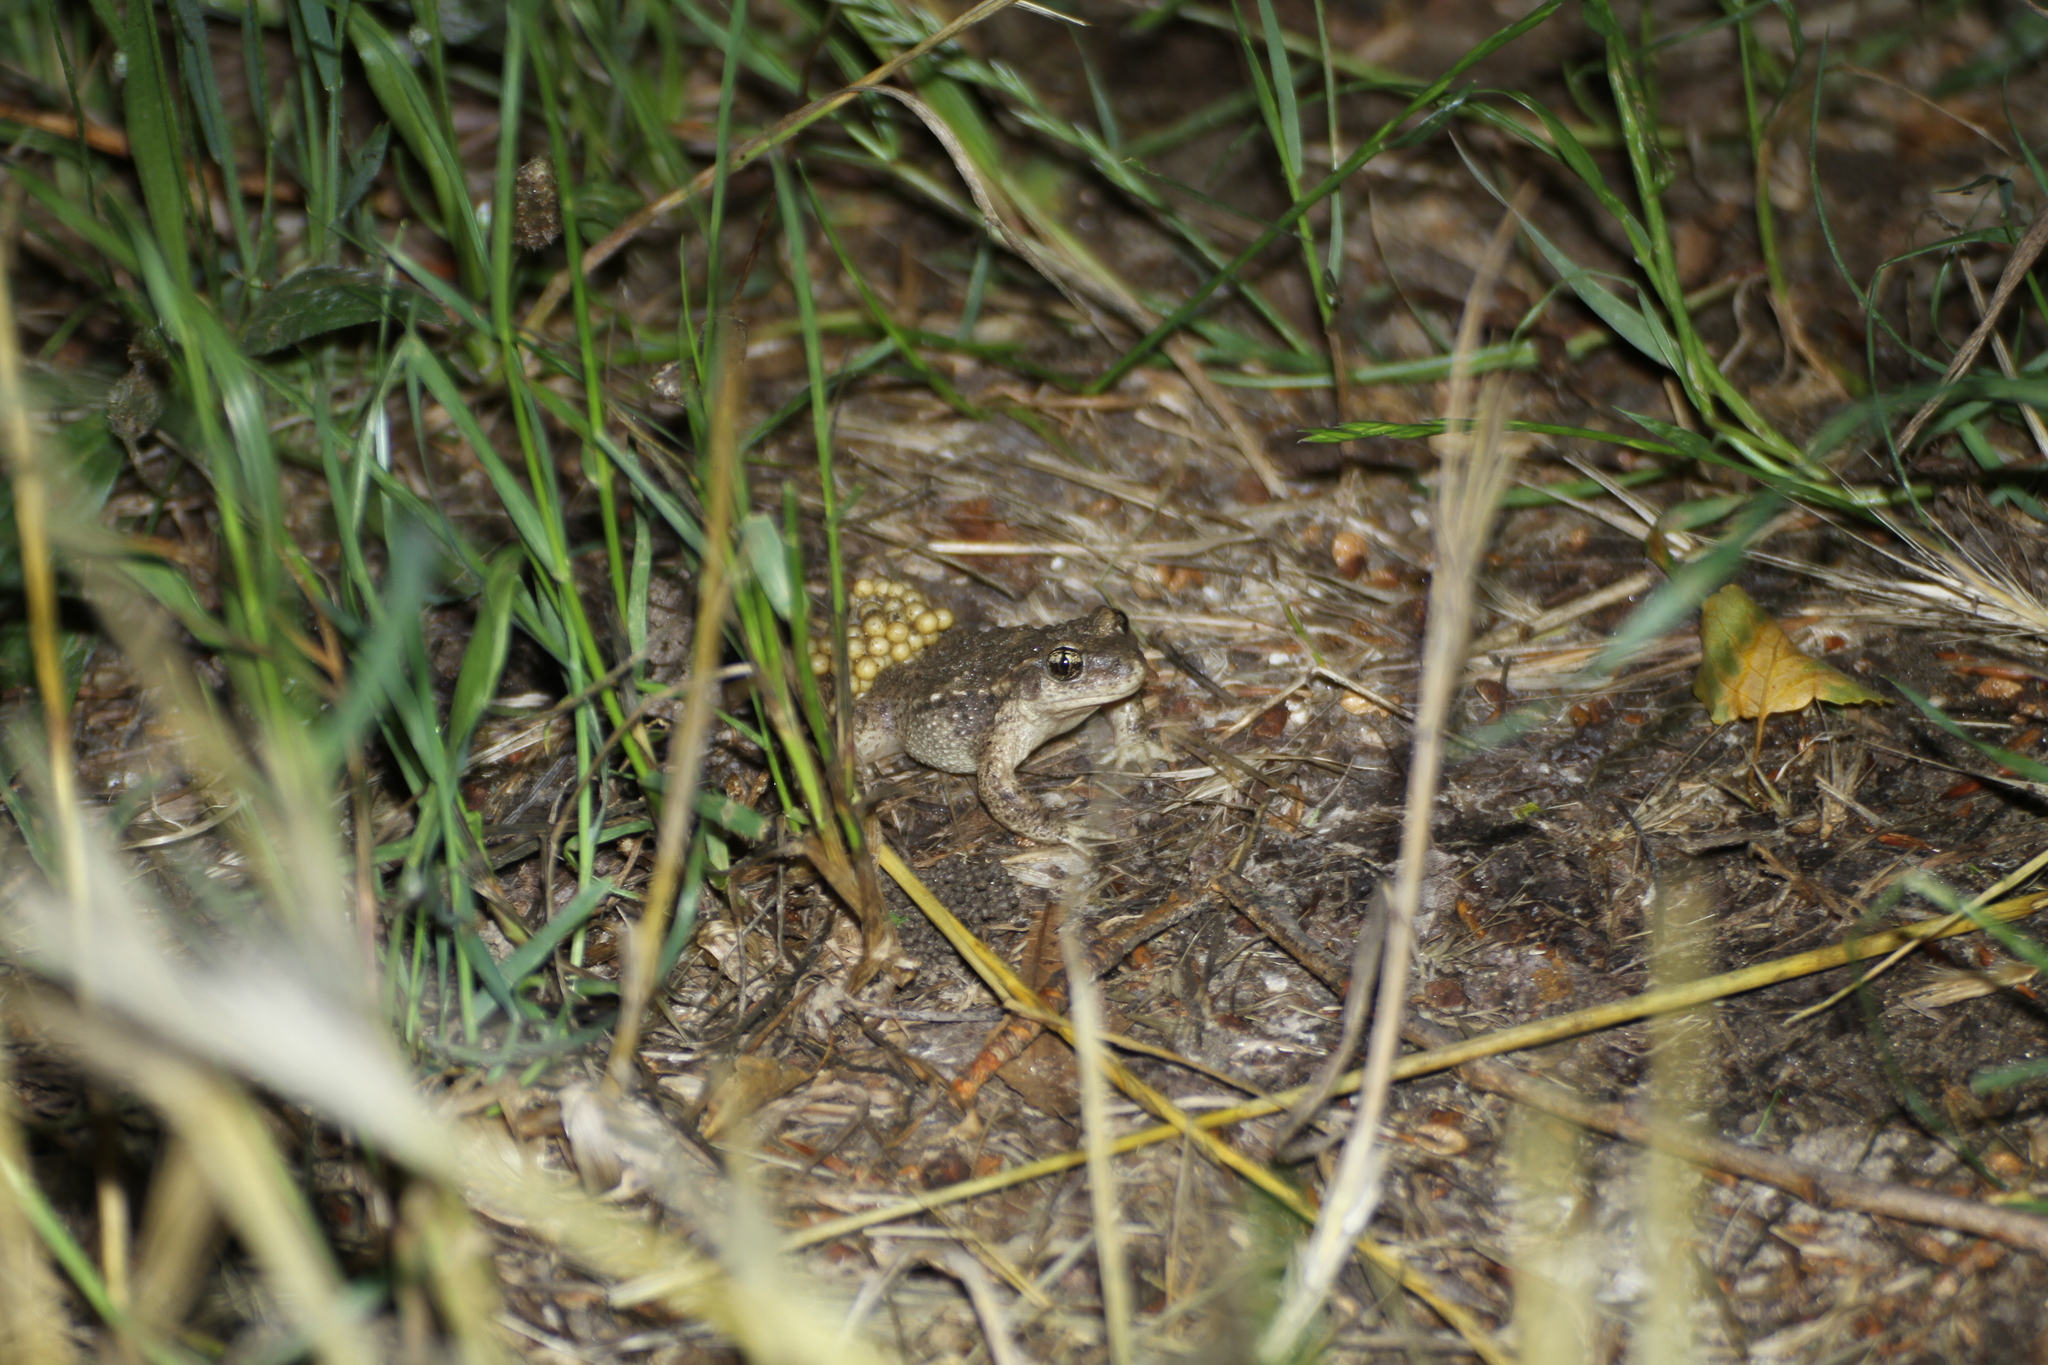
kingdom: Animalia
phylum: Chordata
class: Amphibia
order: Anura
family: Alytidae
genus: Alytes
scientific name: Alytes obstetricans
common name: Midwife toad
